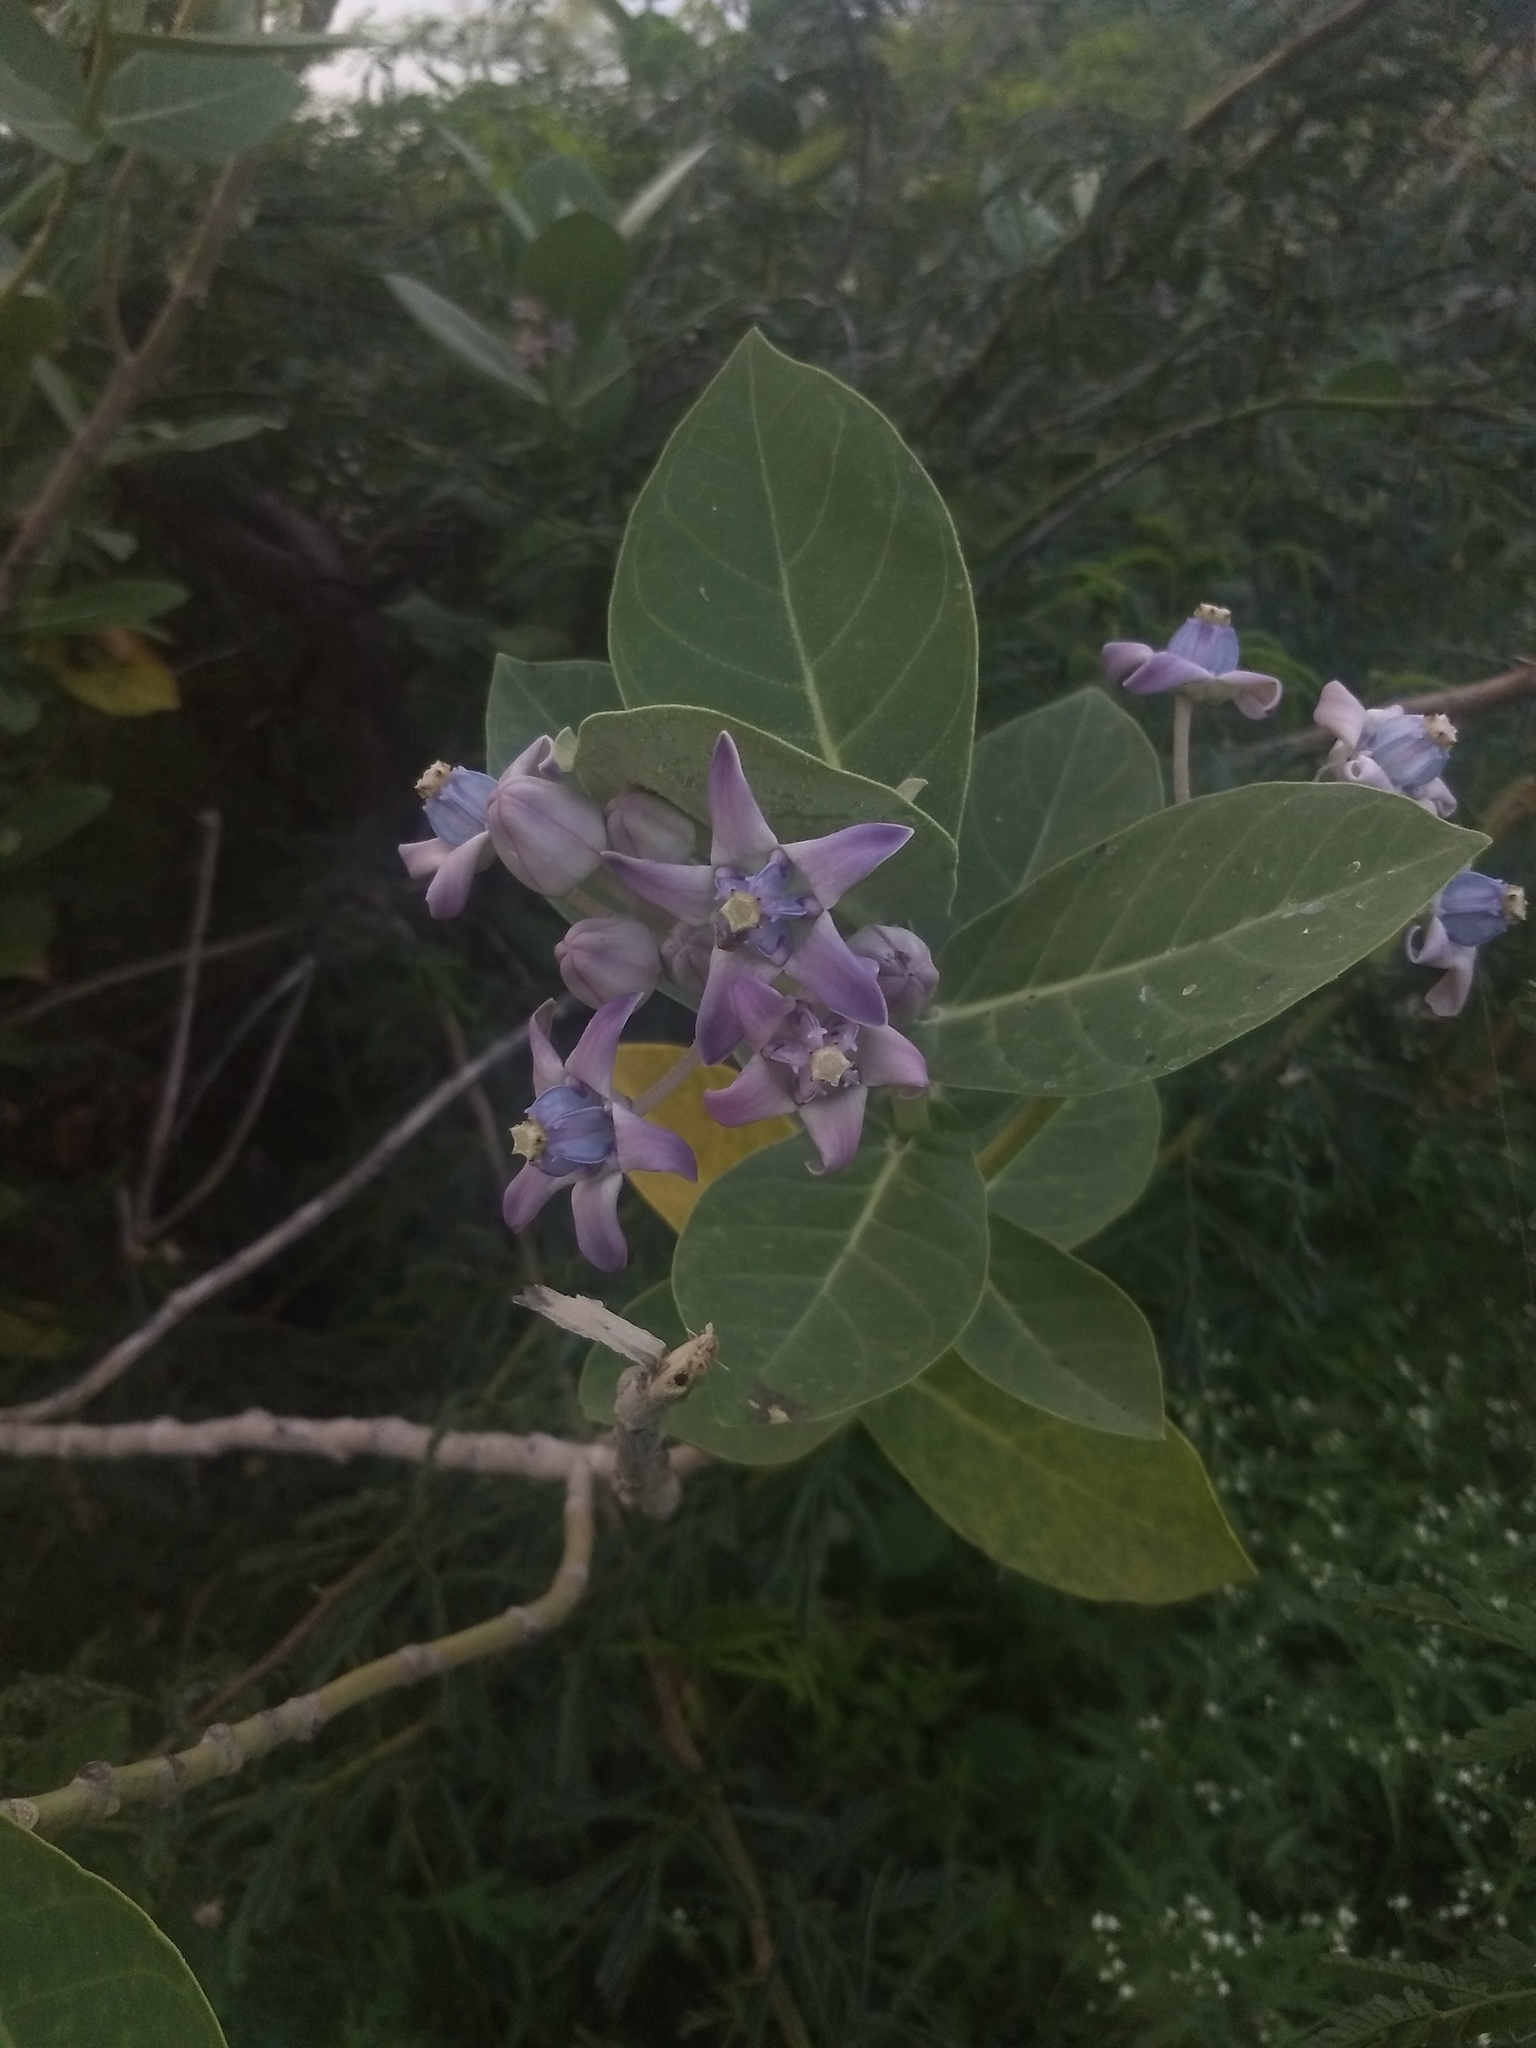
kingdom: Plantae
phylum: Tracheophyta
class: Magnoliopsida
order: Gentianales
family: Apocynaceae
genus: Calotropis
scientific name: Calotropis gigantea
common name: Crown flower
